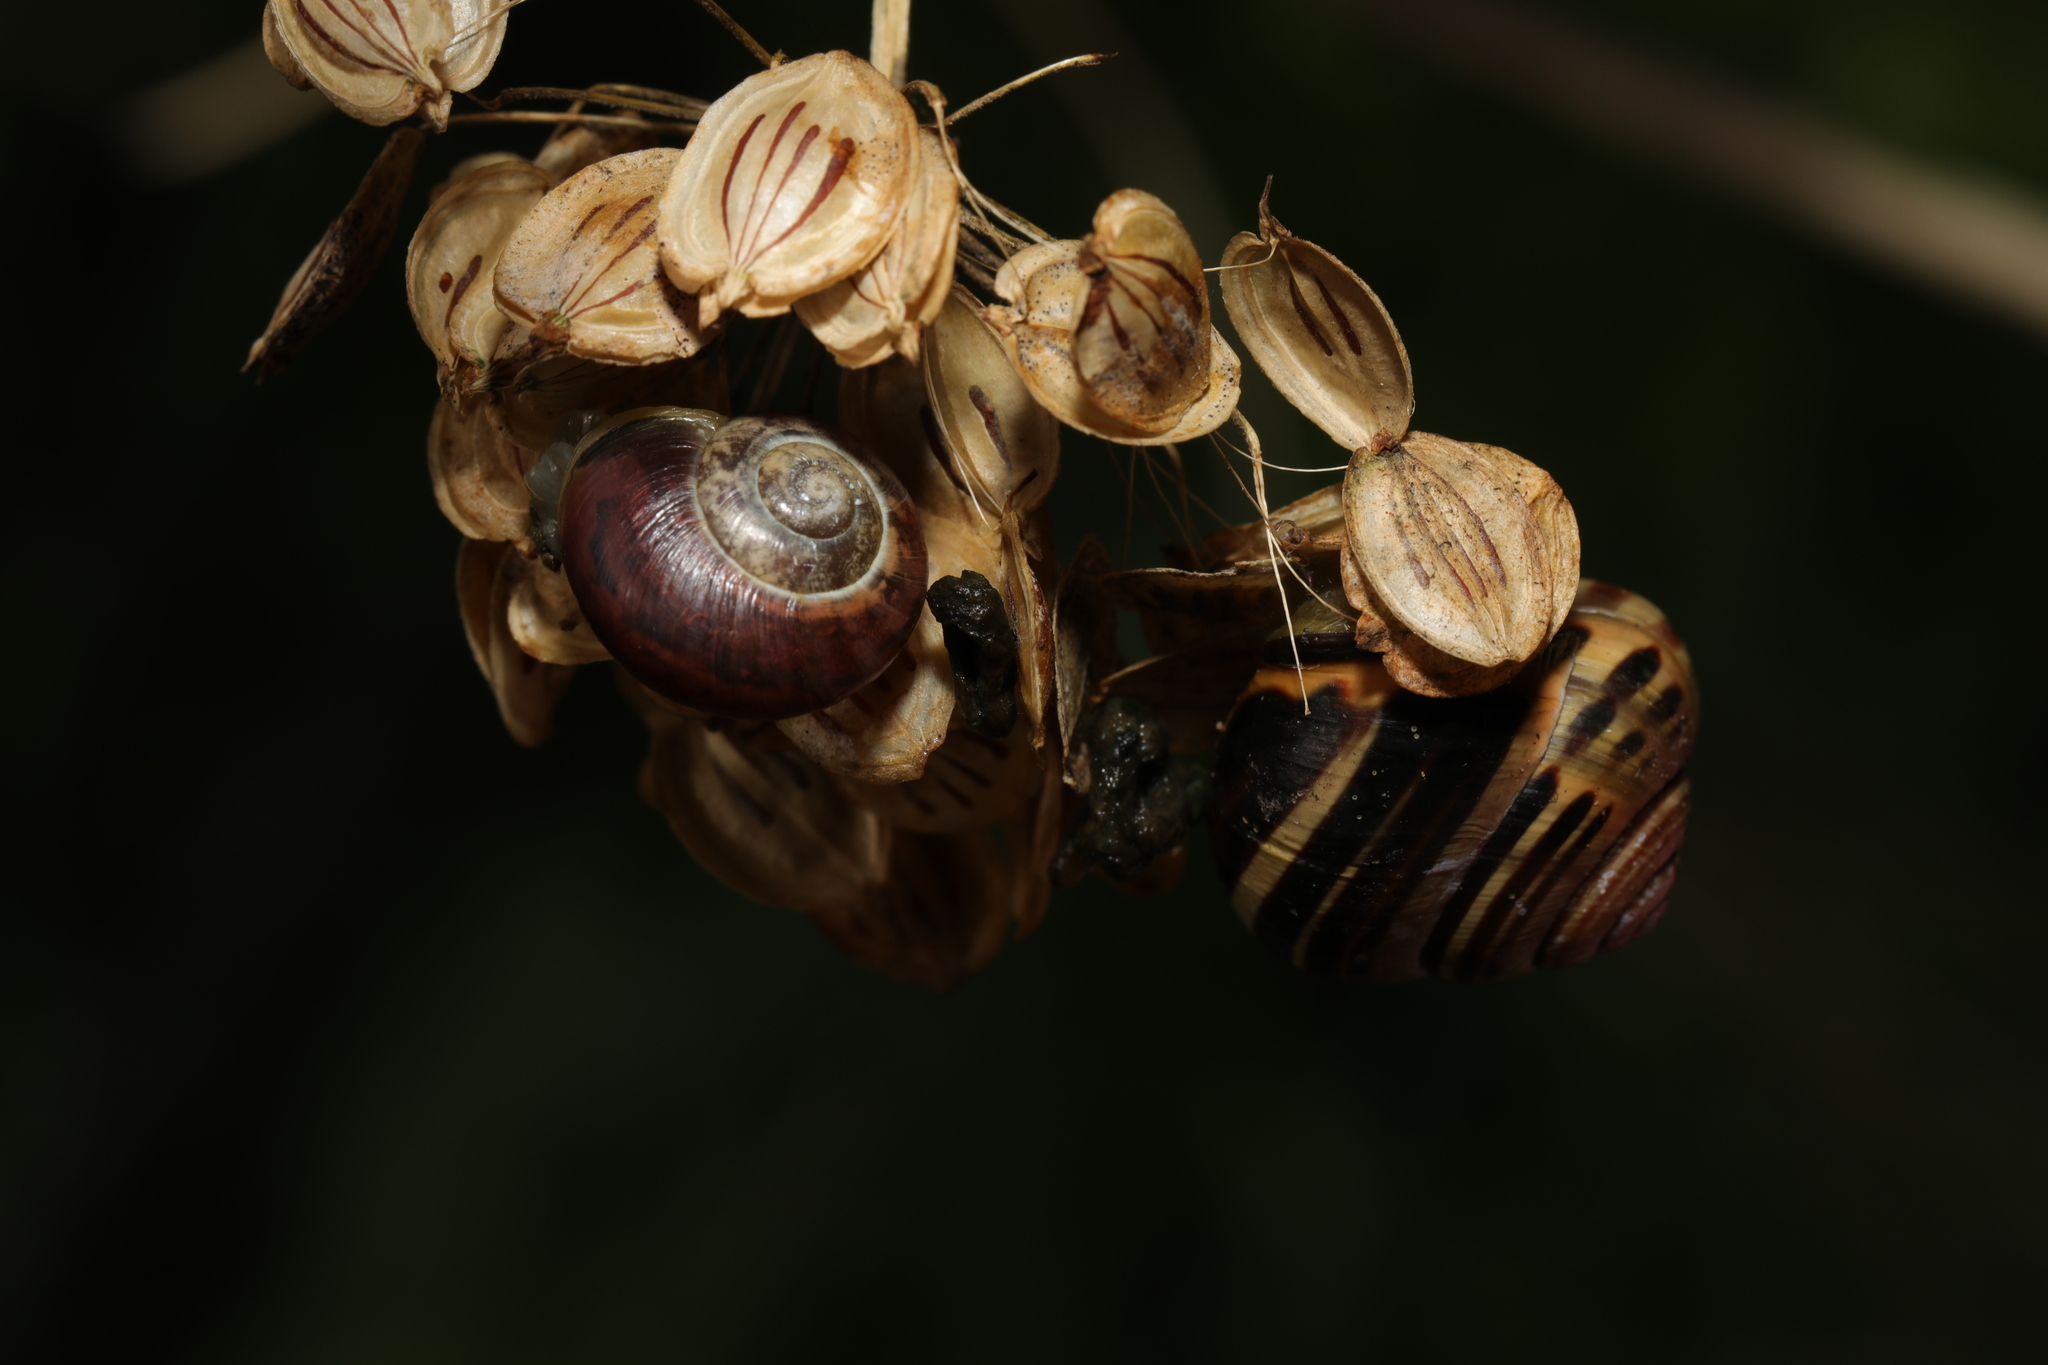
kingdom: Animalia
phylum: Mollusca
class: Gastropoda
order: Stylommatophora
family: Helicidae
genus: Cepaea
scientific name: Cepaea nemoralis
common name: Grovesnail
